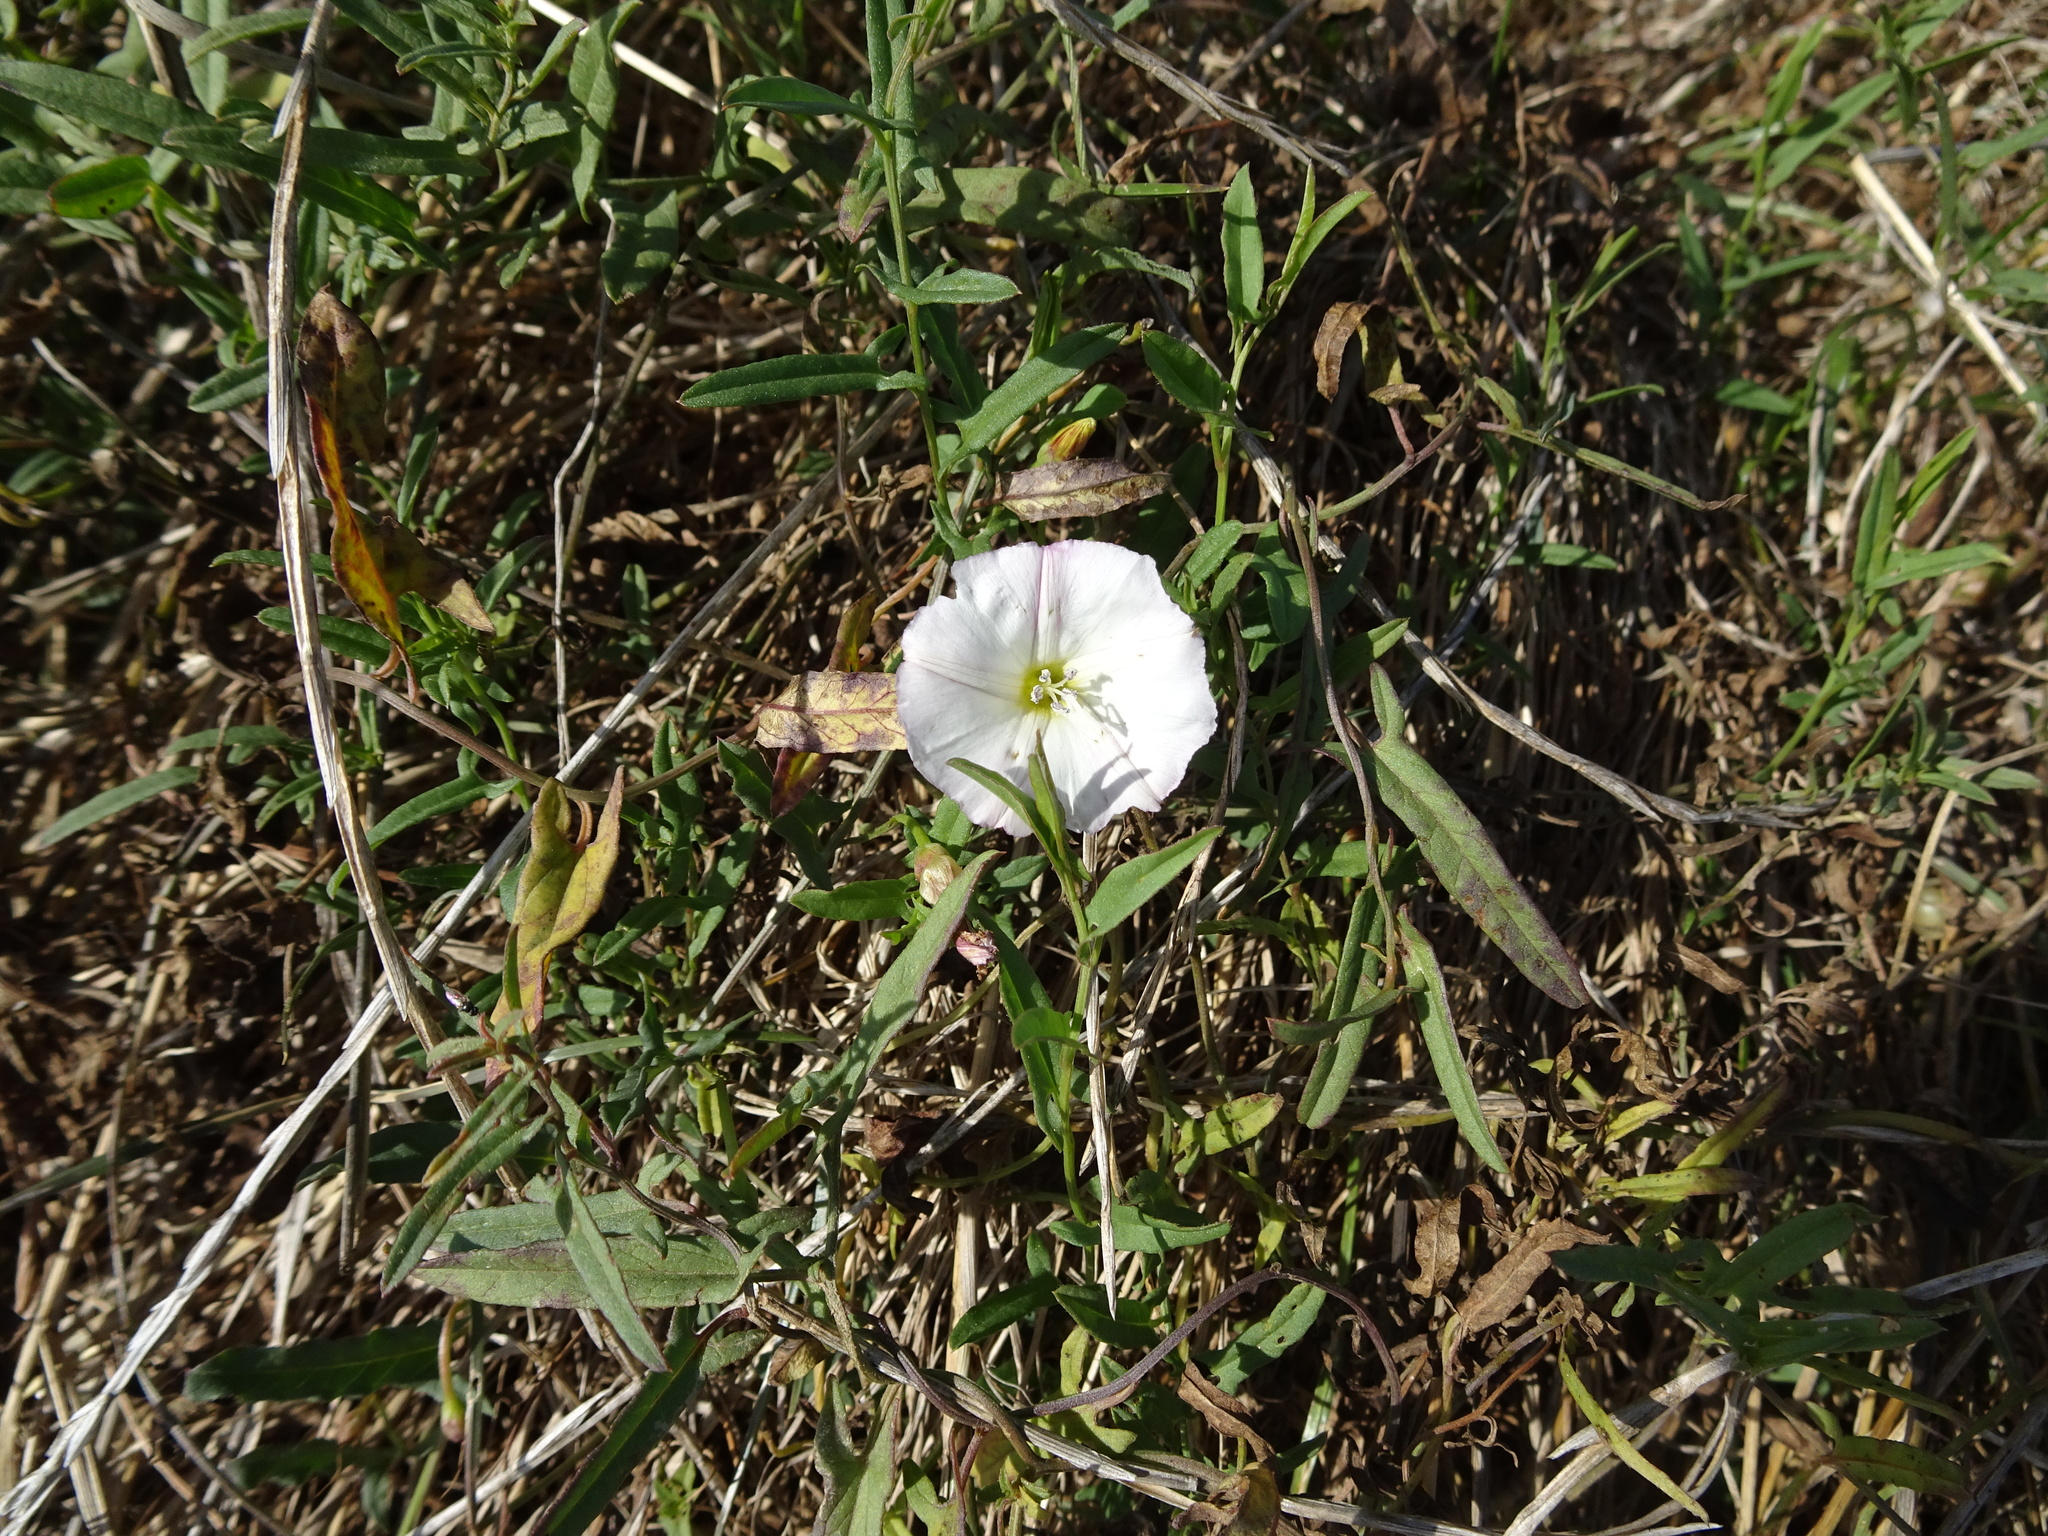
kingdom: Plantae
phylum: Tracheophyta
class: Magnoliopsida
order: Solanales
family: Convolvulaceae
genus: Convolvulus
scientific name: Convolvulus arvensis
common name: Field bindweed
